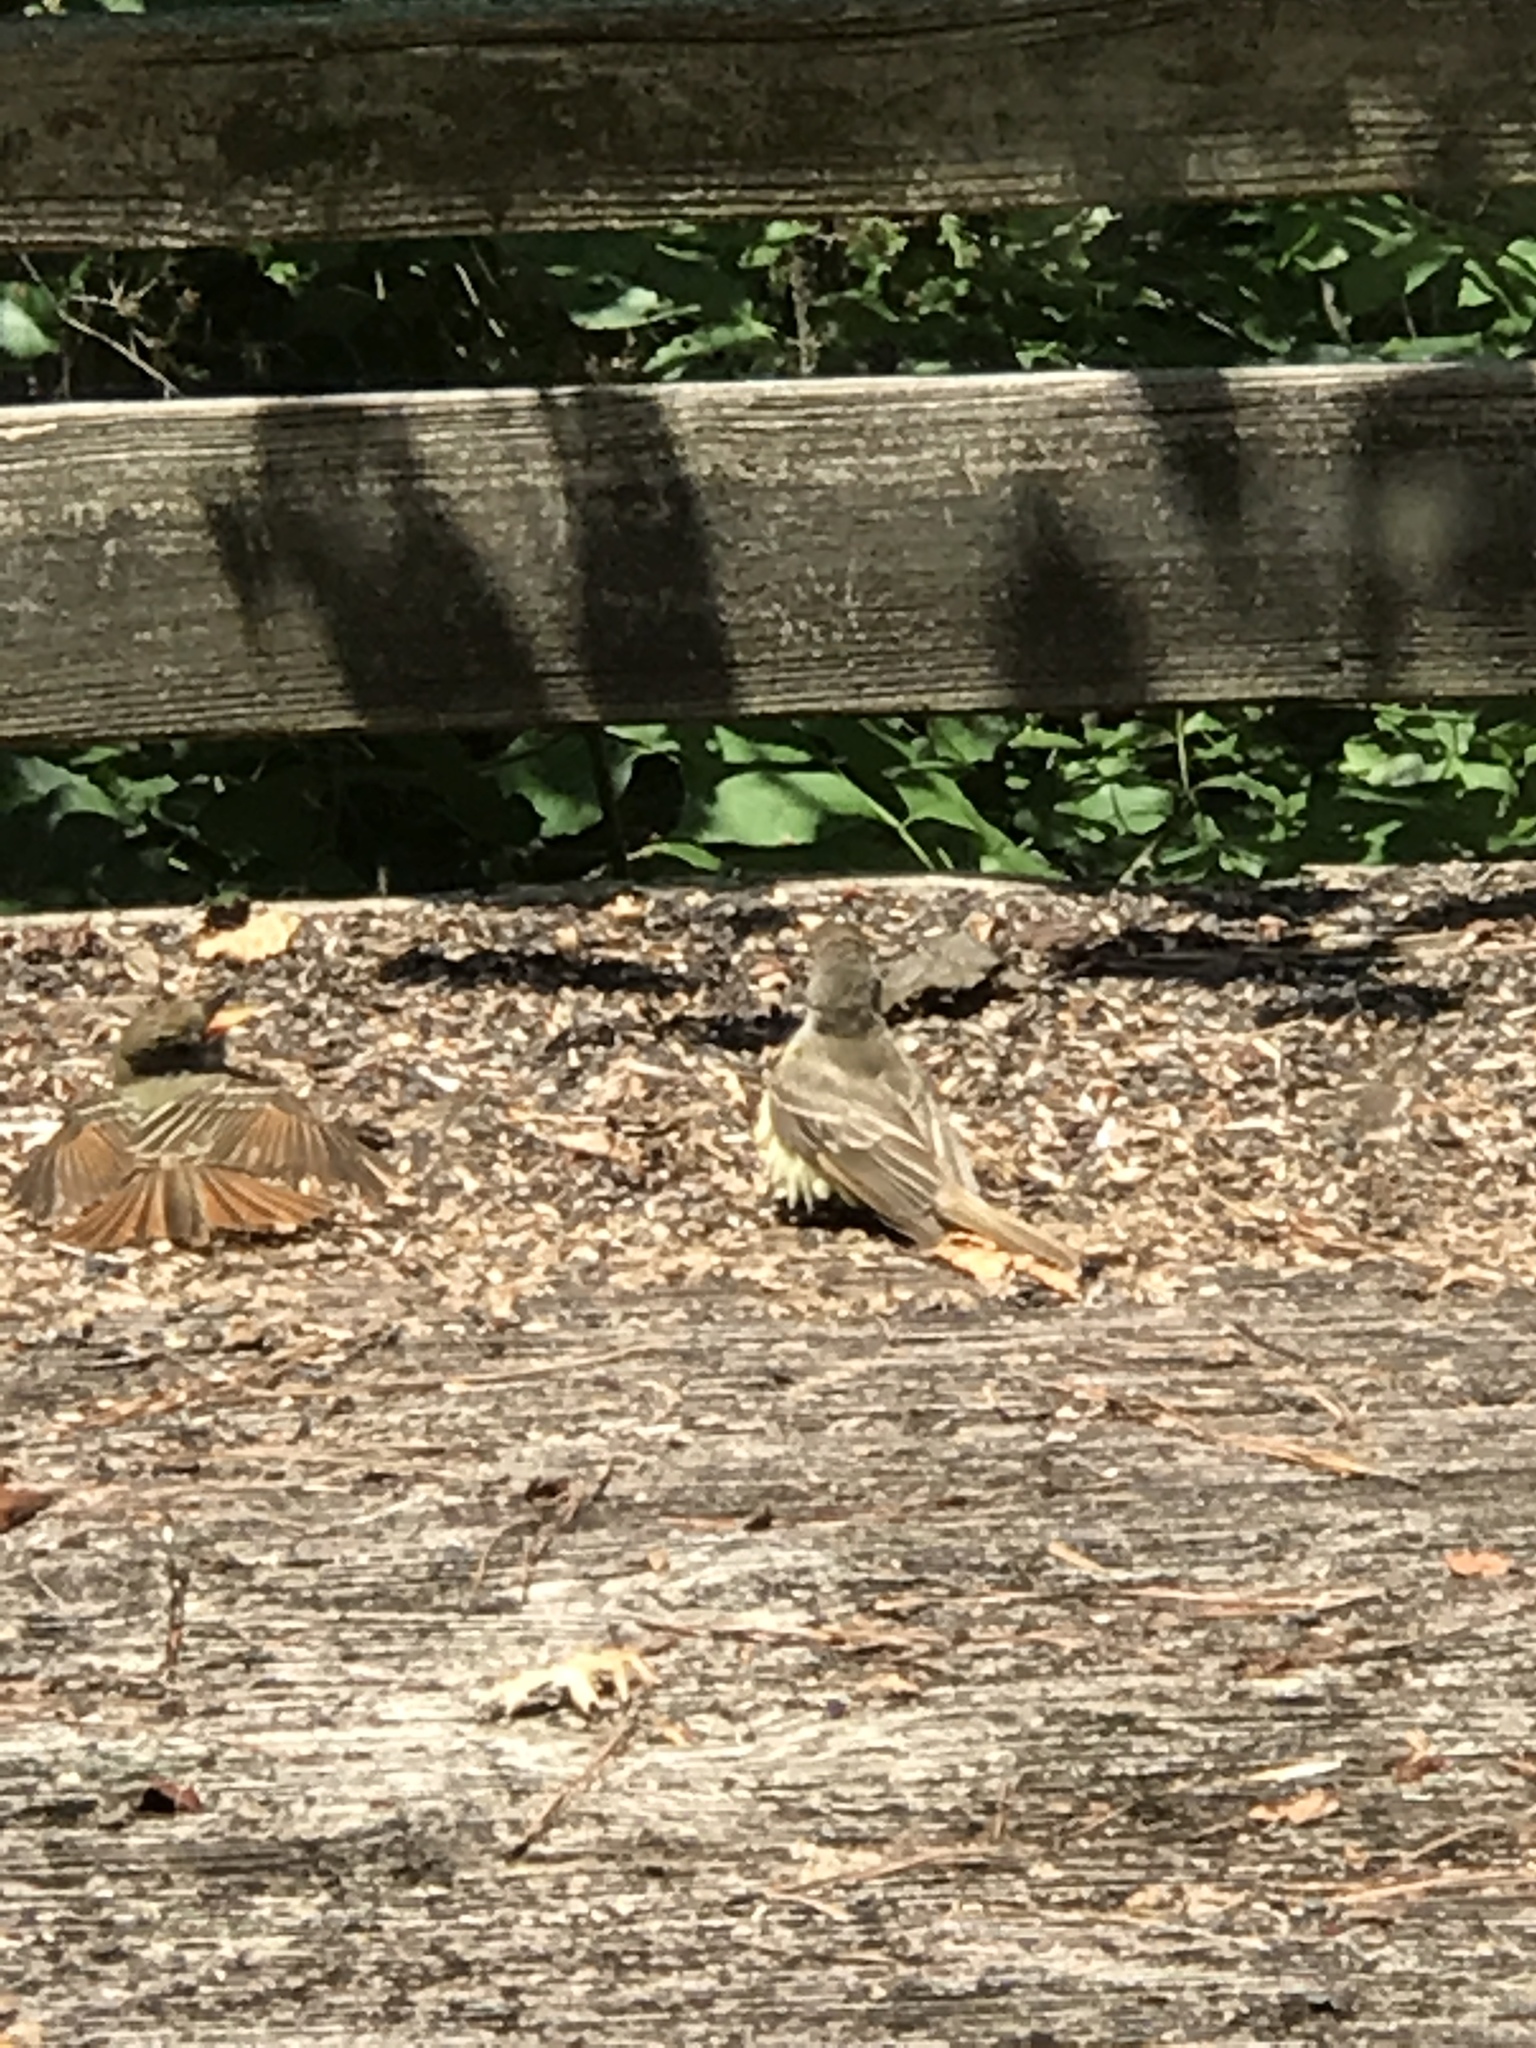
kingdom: Animalia
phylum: Chordata
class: Aves
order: Passeriformes
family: Tyrannidae
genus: Myiarchus
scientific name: Myiarchus crinitus
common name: Great crested flycatcher
